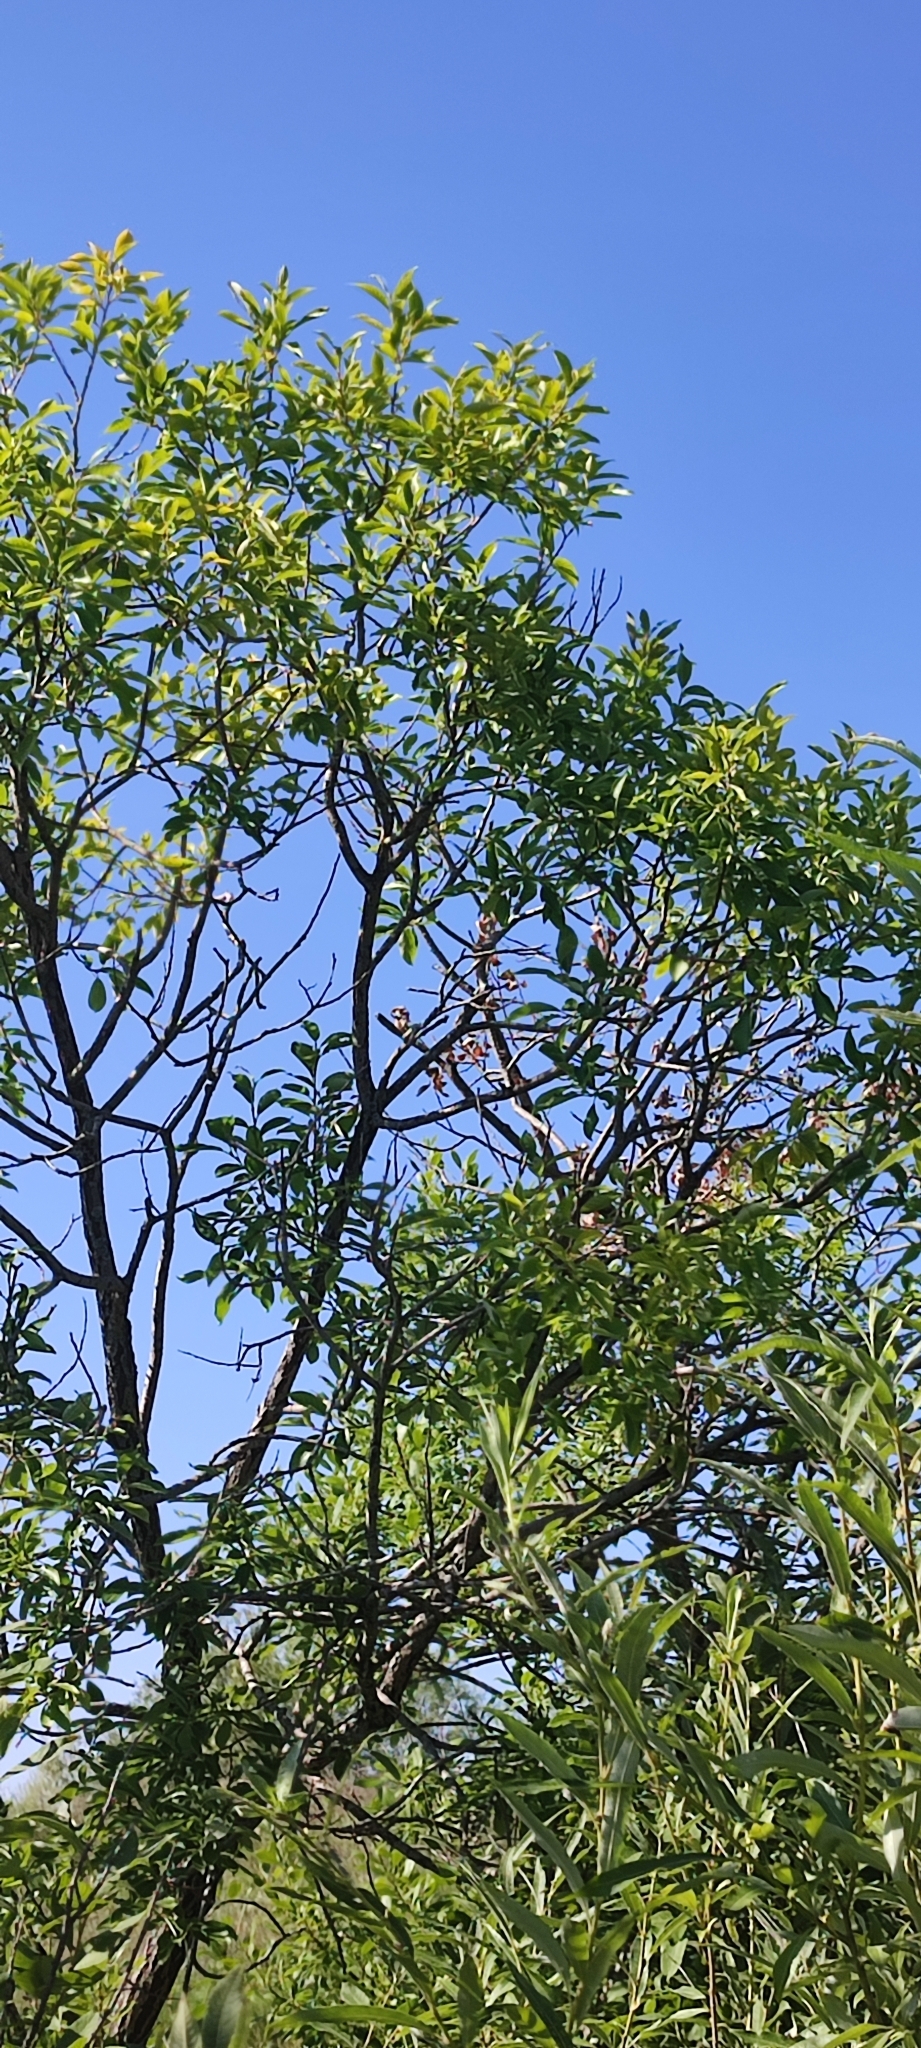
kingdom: Plantae
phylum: Tracheophyta
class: Magnoliopsida
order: Malpighiales
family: Salicaceae
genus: Salix
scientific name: Salix pentandra
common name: Bay willow
